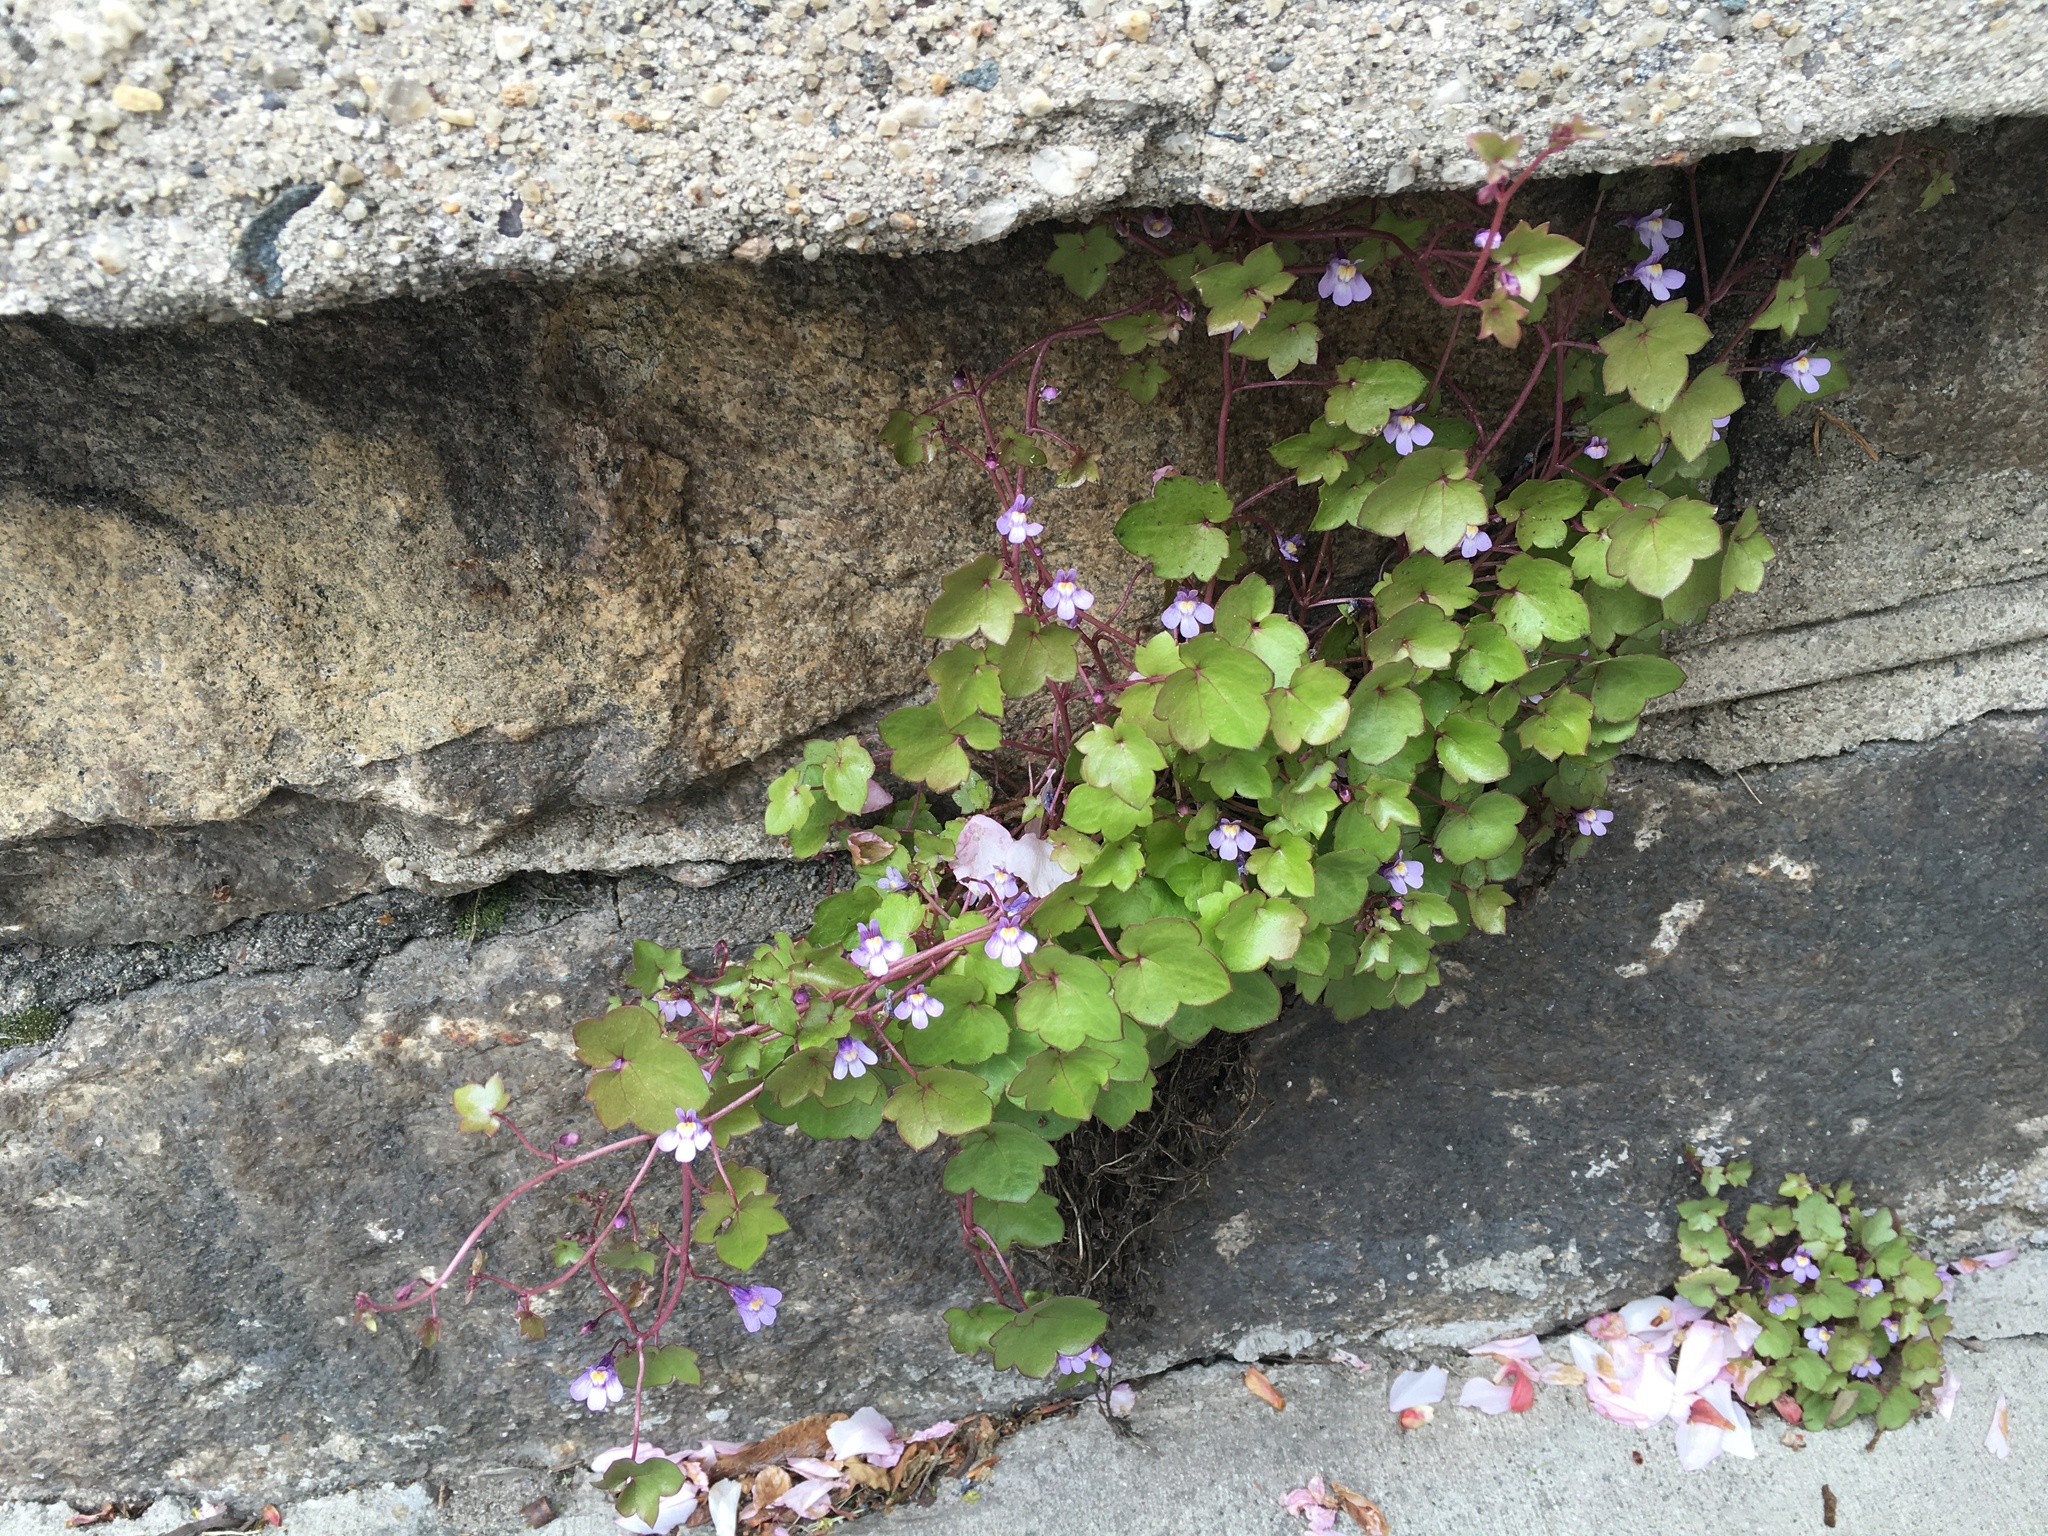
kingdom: Plantae
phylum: Tracheophyta
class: Magnoliopsida
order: Lamiales
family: Plantaginaceae
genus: Cymbalaria
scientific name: Cymbalaria muralis
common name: Ivy-leaved toadflax
